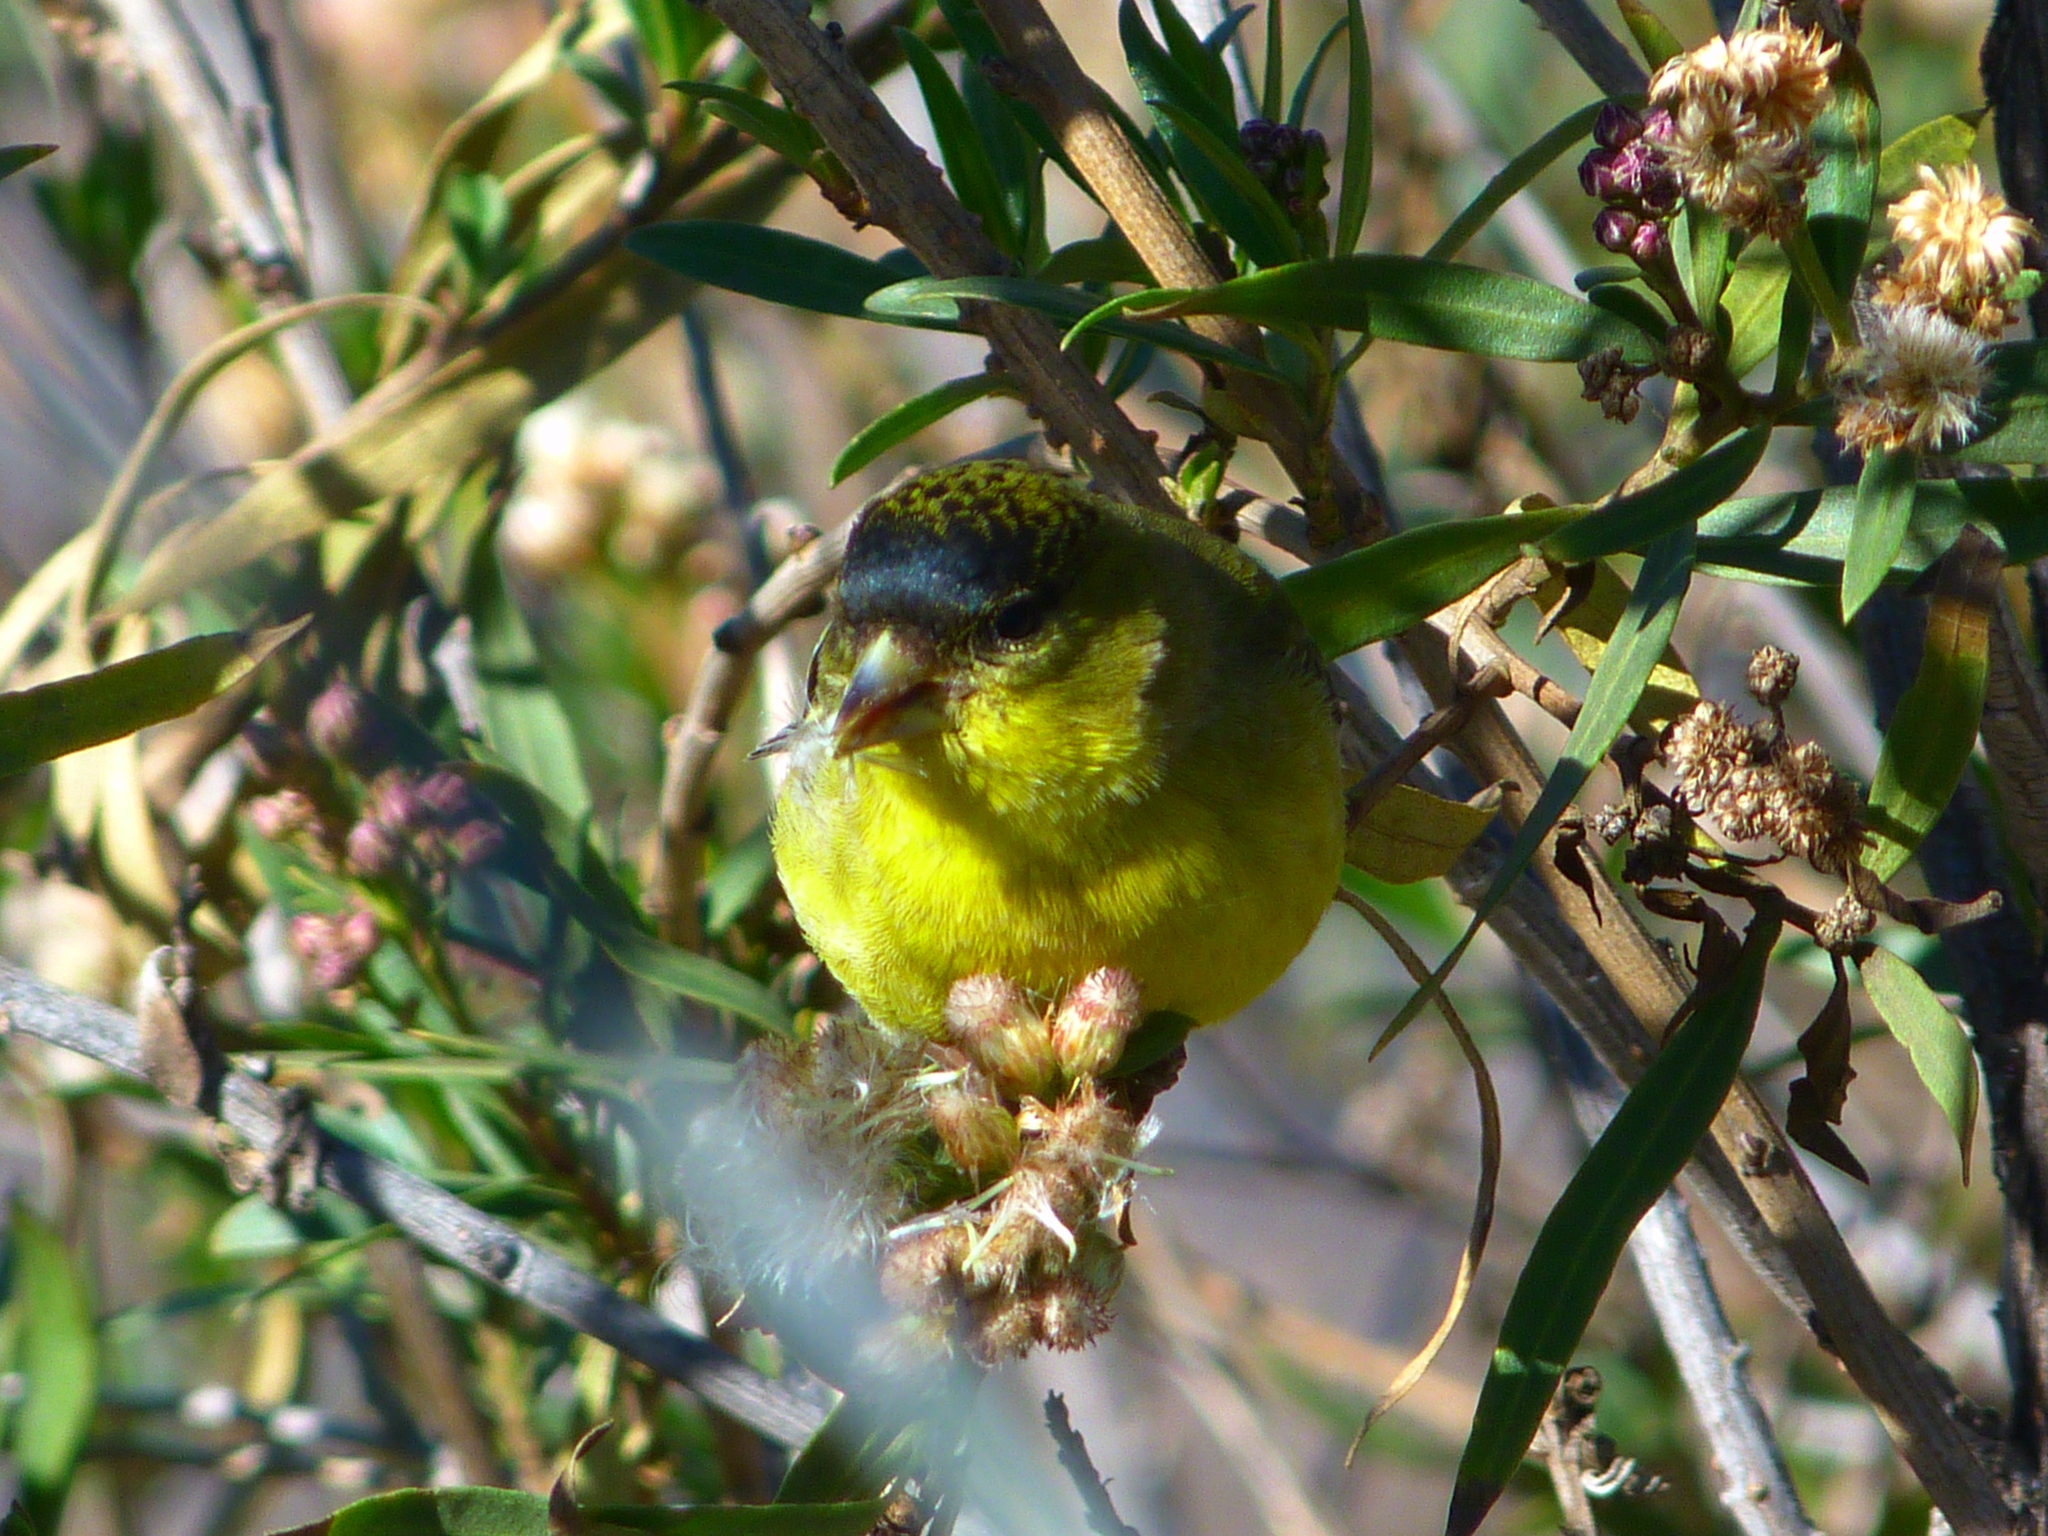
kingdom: Animalia
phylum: Chordata
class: Aves
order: Passeriformes
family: Fringillidae
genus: Spinus
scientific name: Spinus psaltria
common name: Lesser goldfinch
